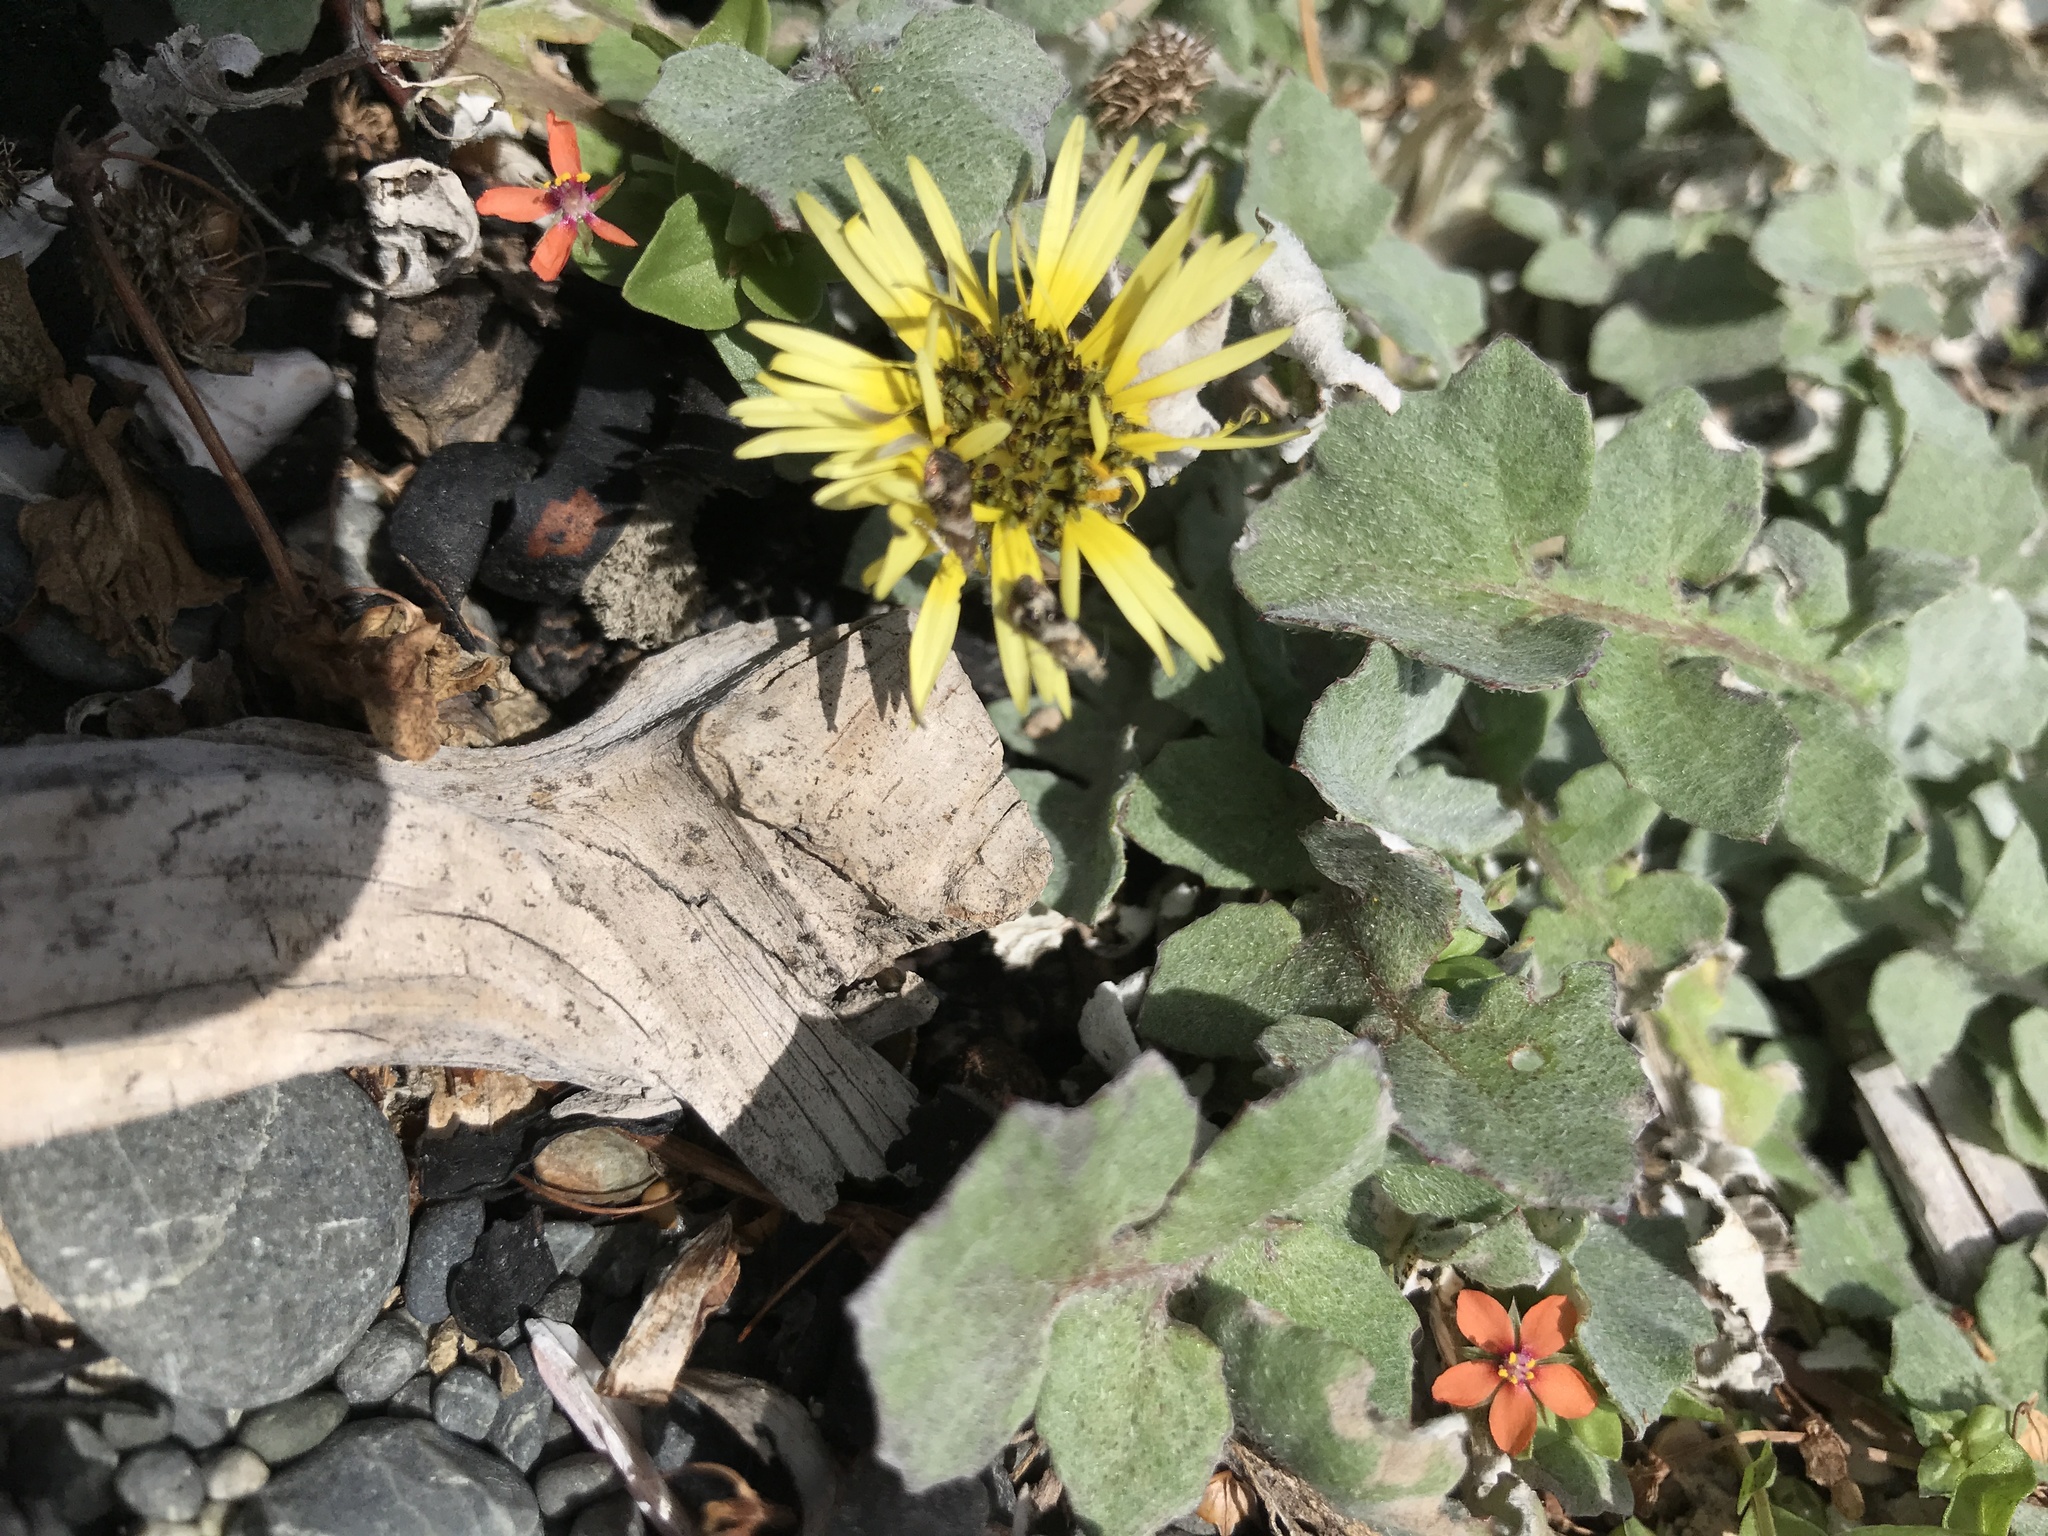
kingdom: Animalia
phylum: Arthropoda
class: Insecta
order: Lepidoptera
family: Choreutidae
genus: Tebenna
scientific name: Tebenna micalis
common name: Vagrant twitcher
